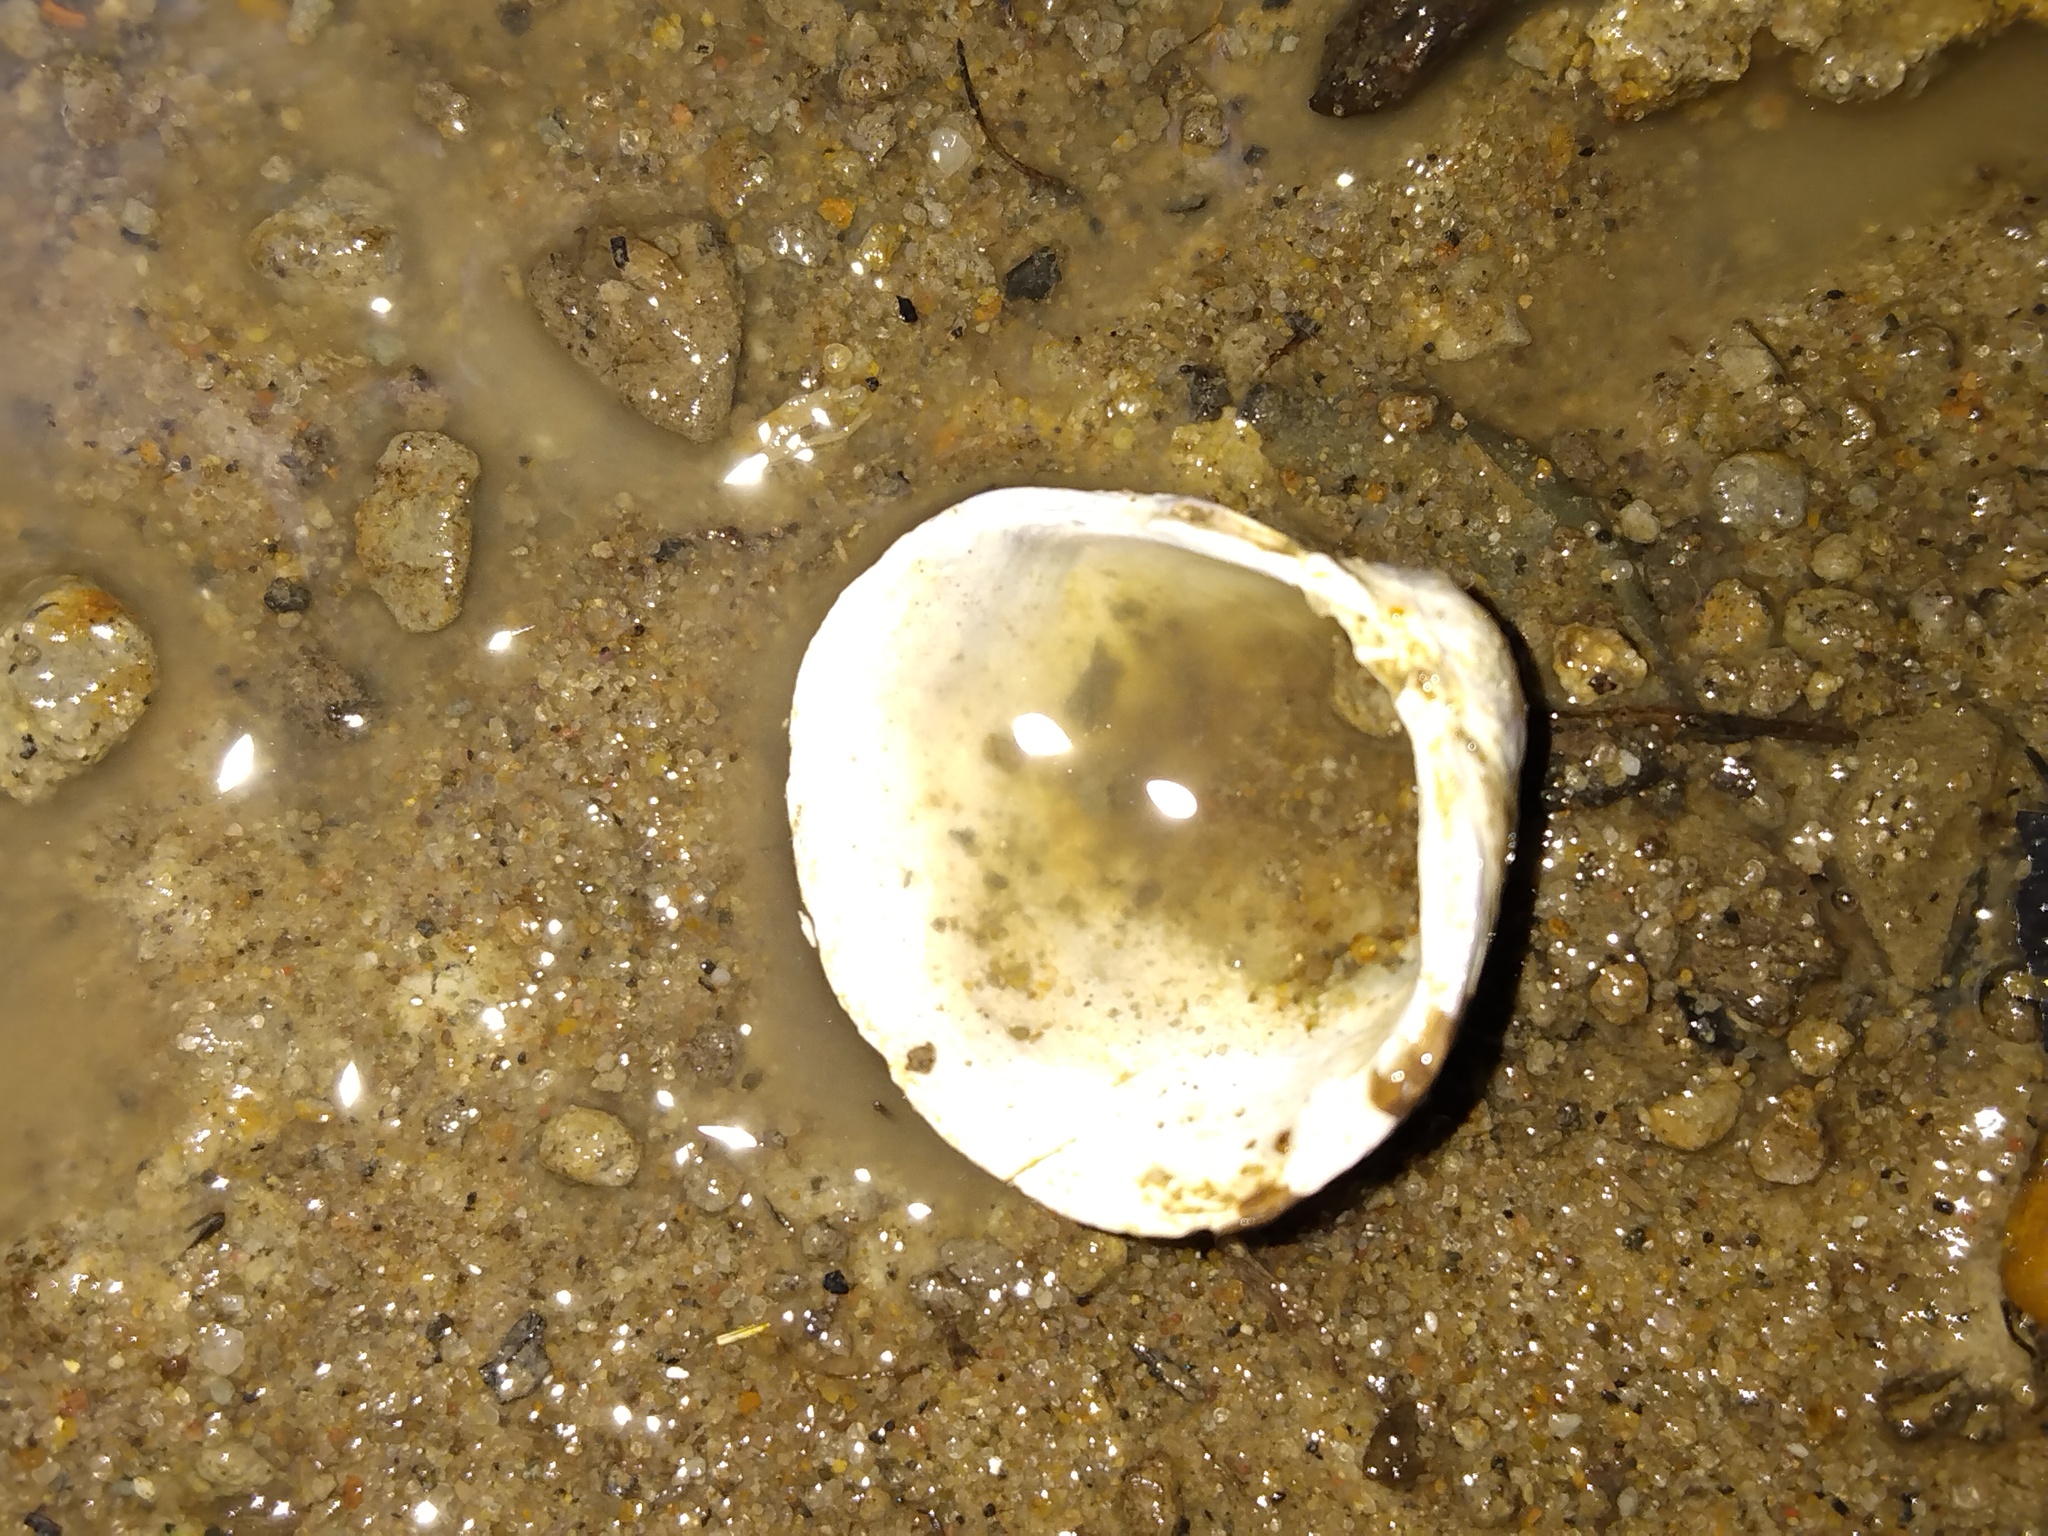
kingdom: Animalia
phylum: Mollusca
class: Bivalvia
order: Venerida
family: Cyrenidae
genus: Corbicula
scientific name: Corbicula fluminea
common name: Asian clam
